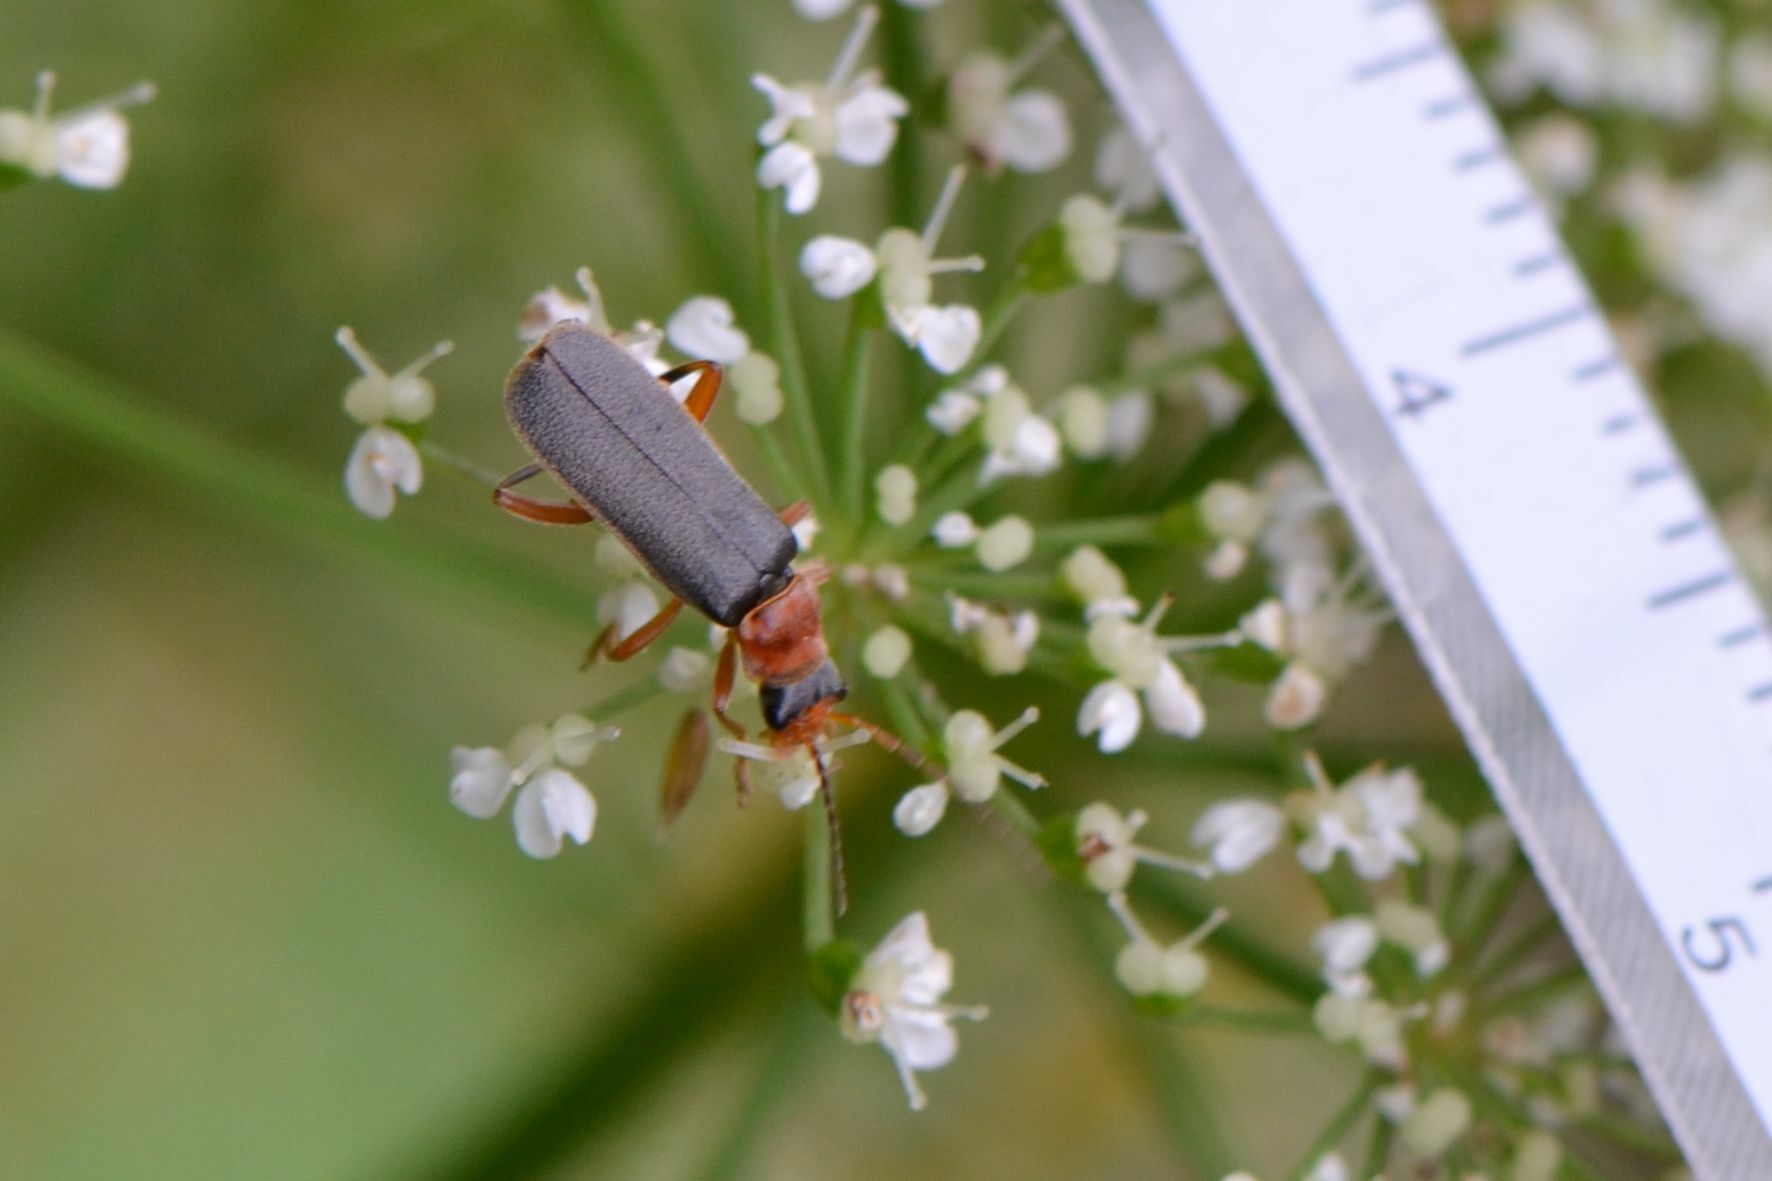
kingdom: Animalia
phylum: Arthropoda
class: Insecta
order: Coleoptera
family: Cantharidae
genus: Cantharis
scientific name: Cantharis lateralis
